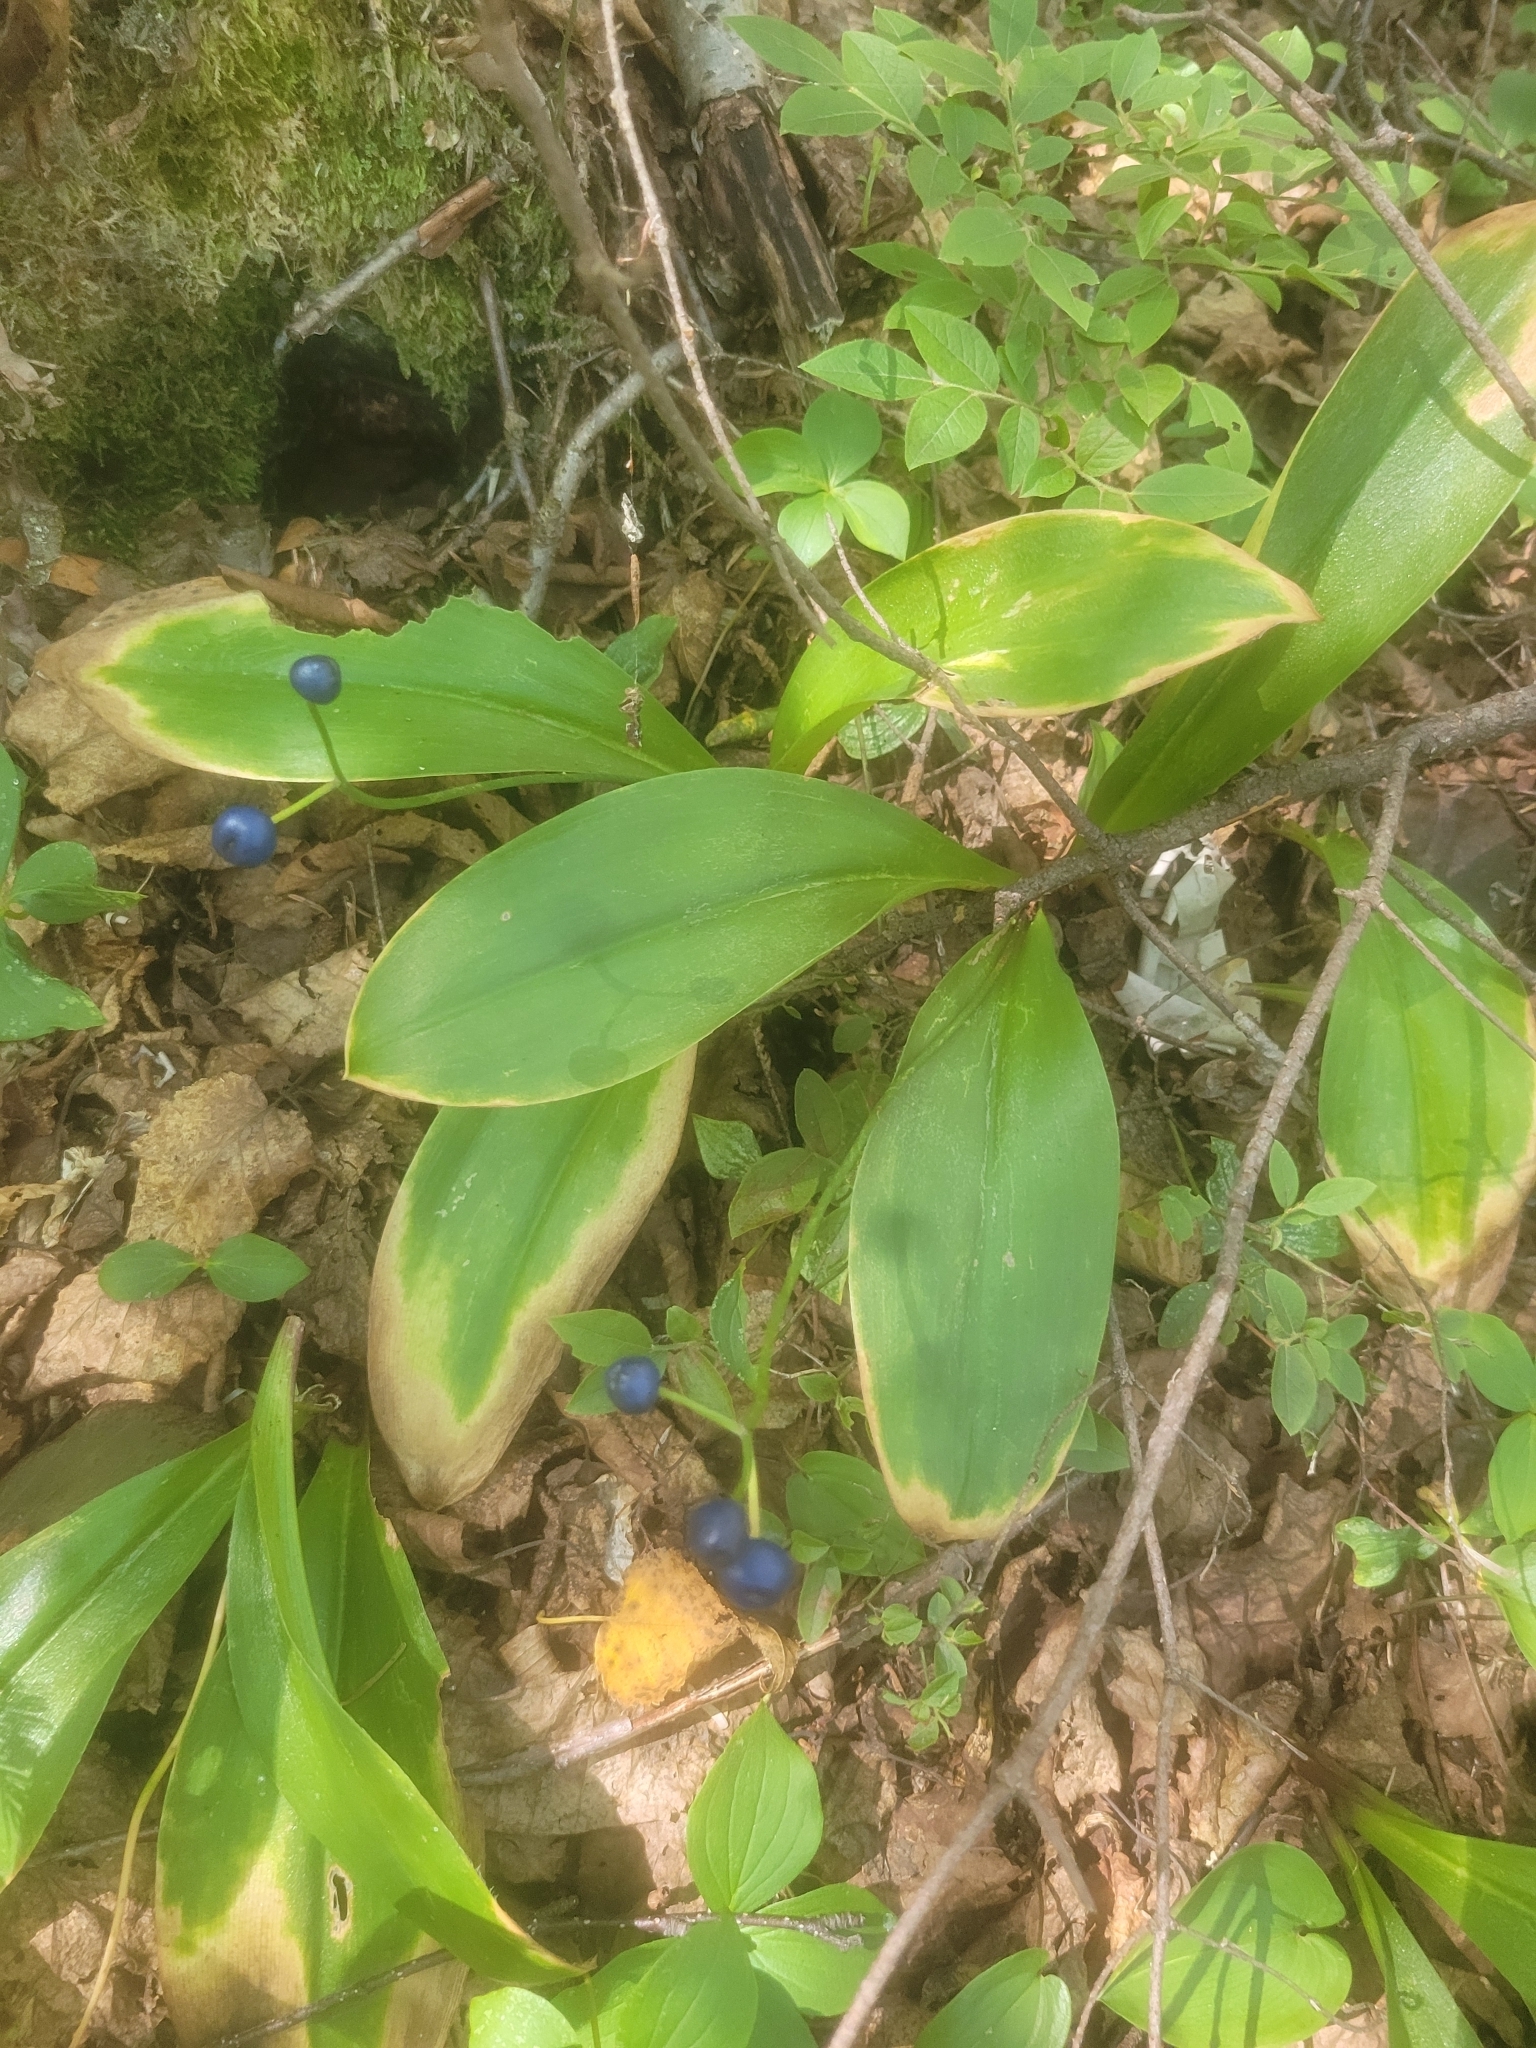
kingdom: Plantae
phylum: Tracheophyta
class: Liliopsida
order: Liliales
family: Liliaceae
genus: Clintonia
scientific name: Clintonia borealis
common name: Yellow clintonia
